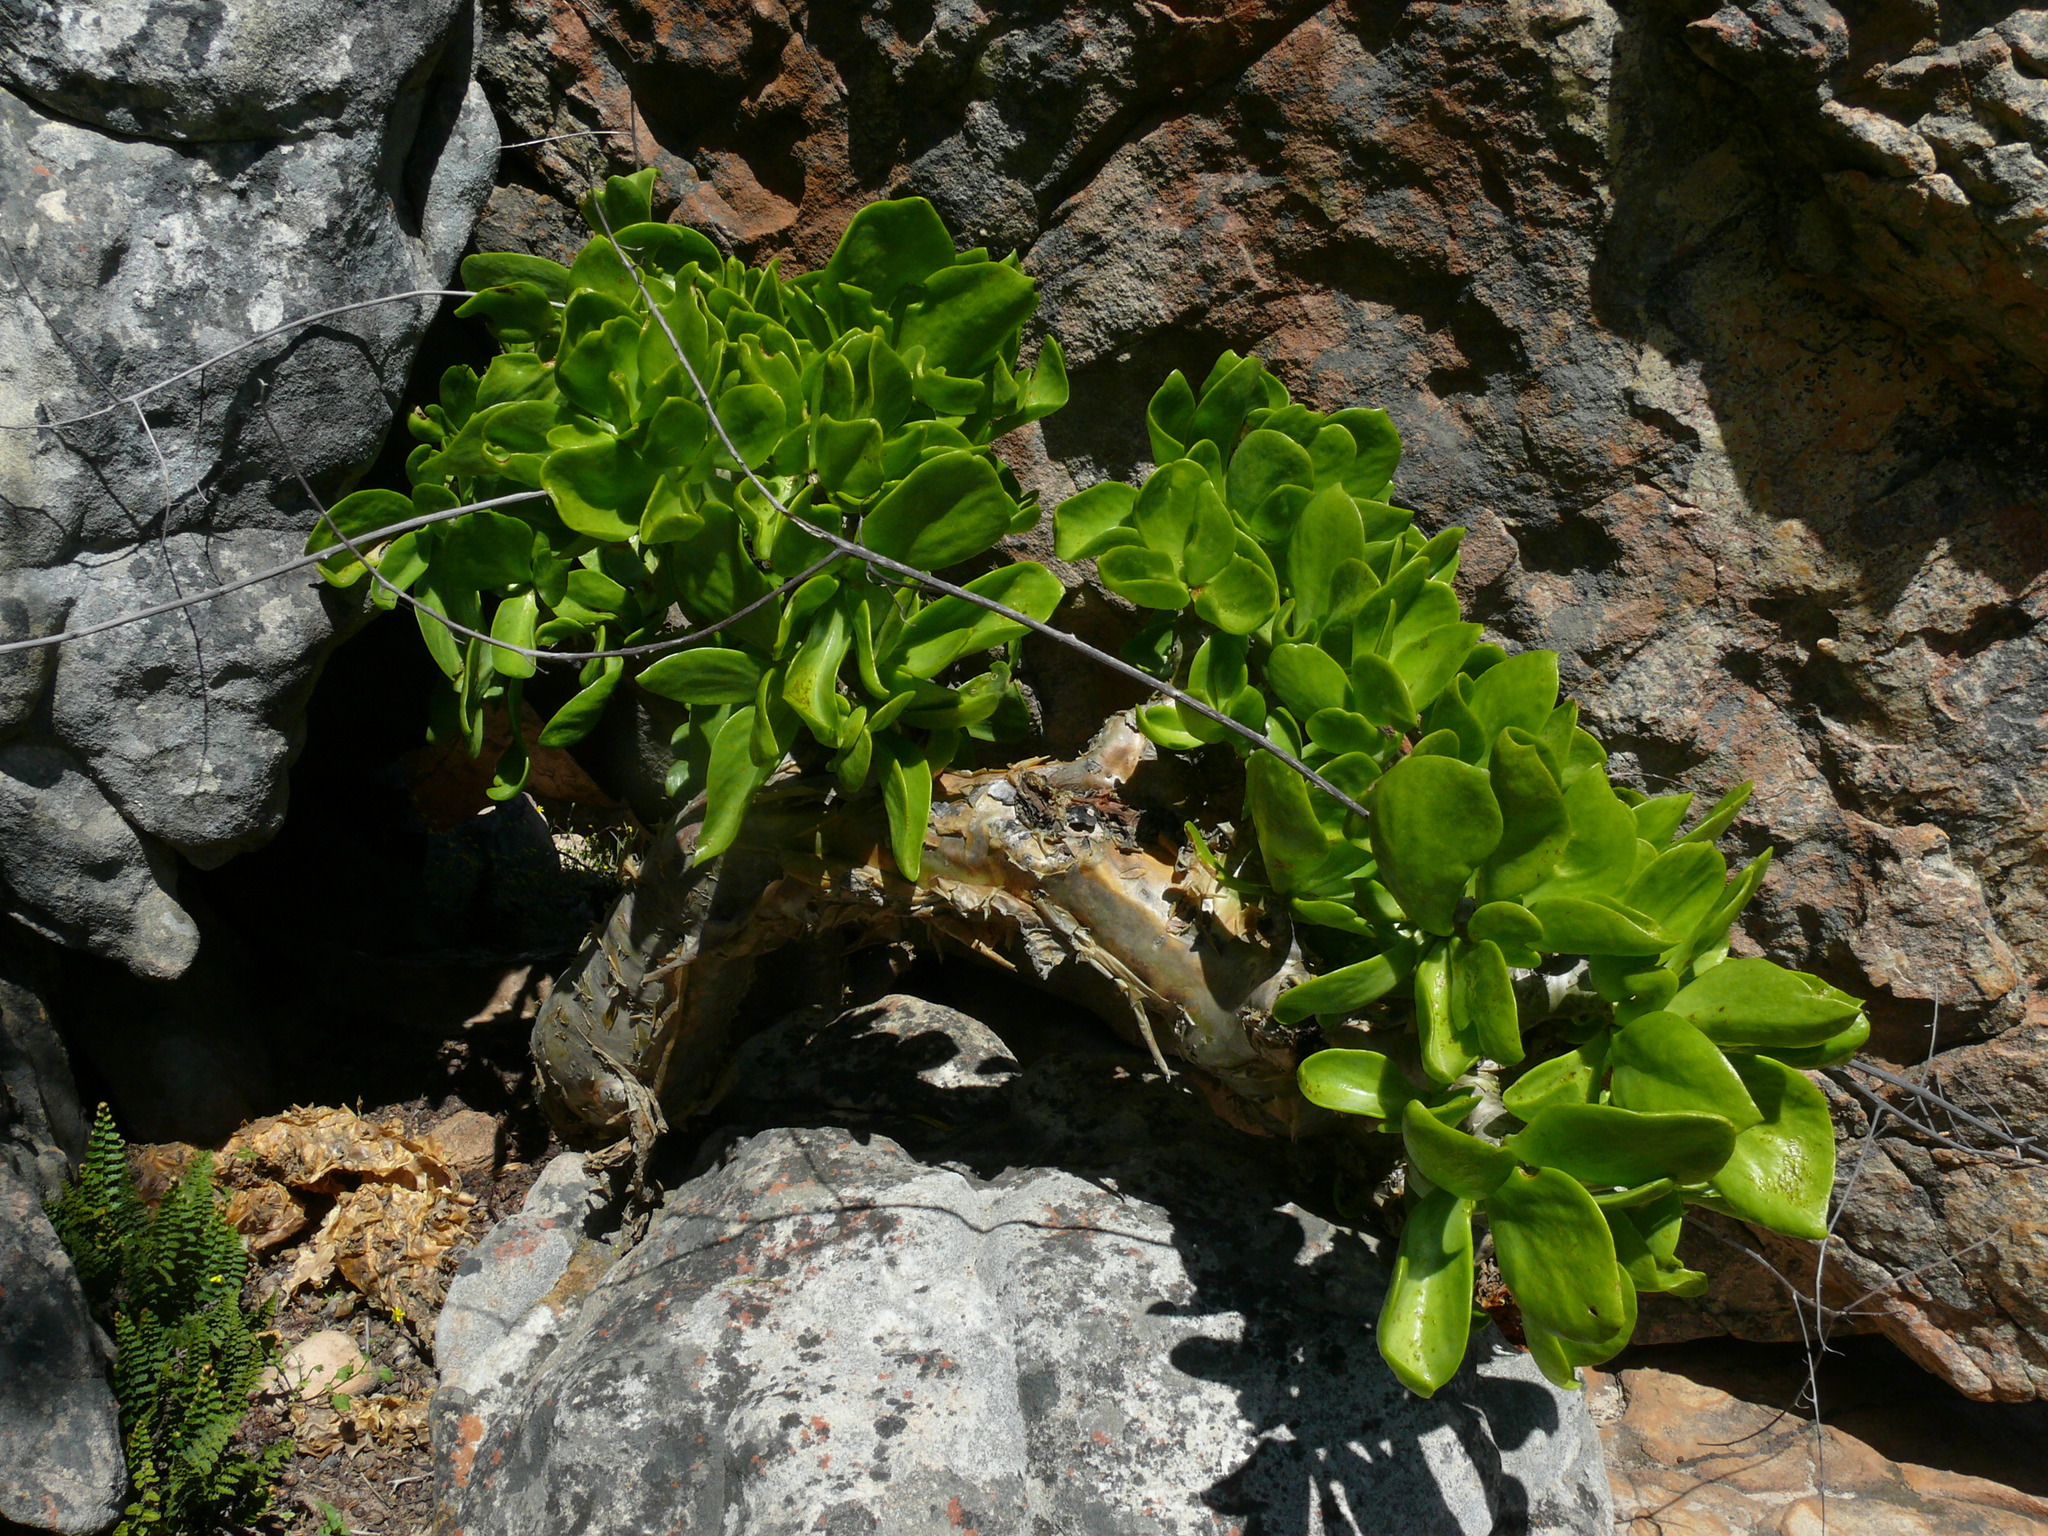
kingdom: Plantae
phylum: Tracheophyta
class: Magnoliopsida
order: Saxifragales
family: Crassulaceae
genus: Tylecodon
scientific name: Tylecodon paniculatus
